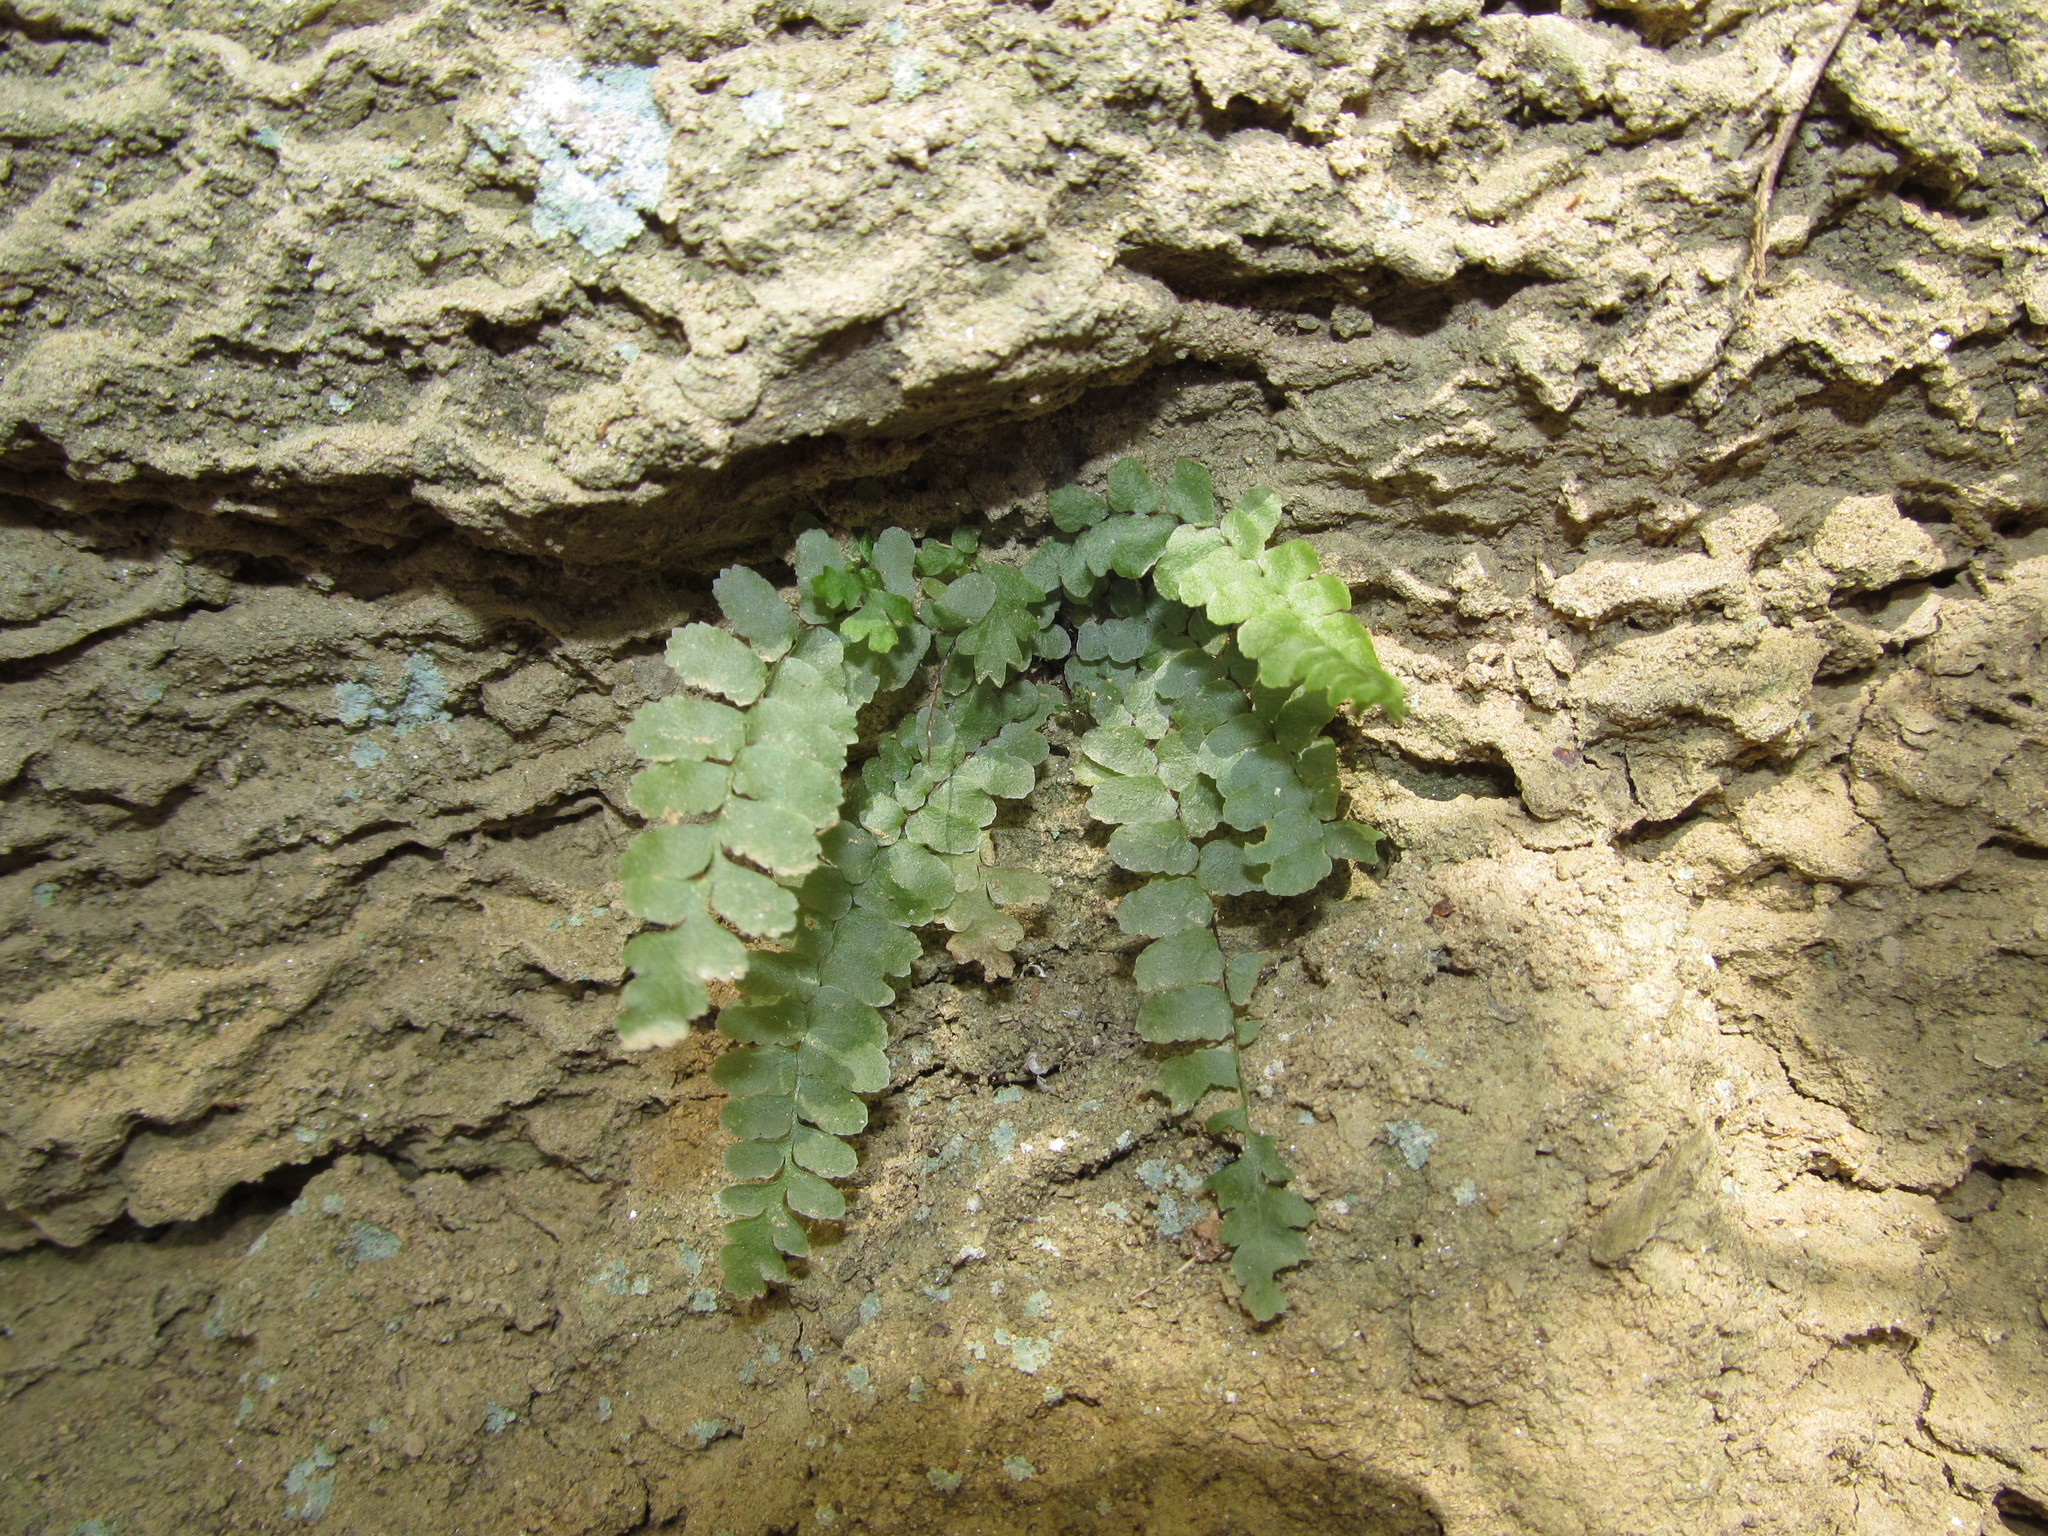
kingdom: Plantae
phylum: Tracheophyta
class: Polypodiopsida
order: Polypodiales
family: Aspleniaceae
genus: Asplenium
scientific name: Asplenium platyneuron
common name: Ebony spleenwort
